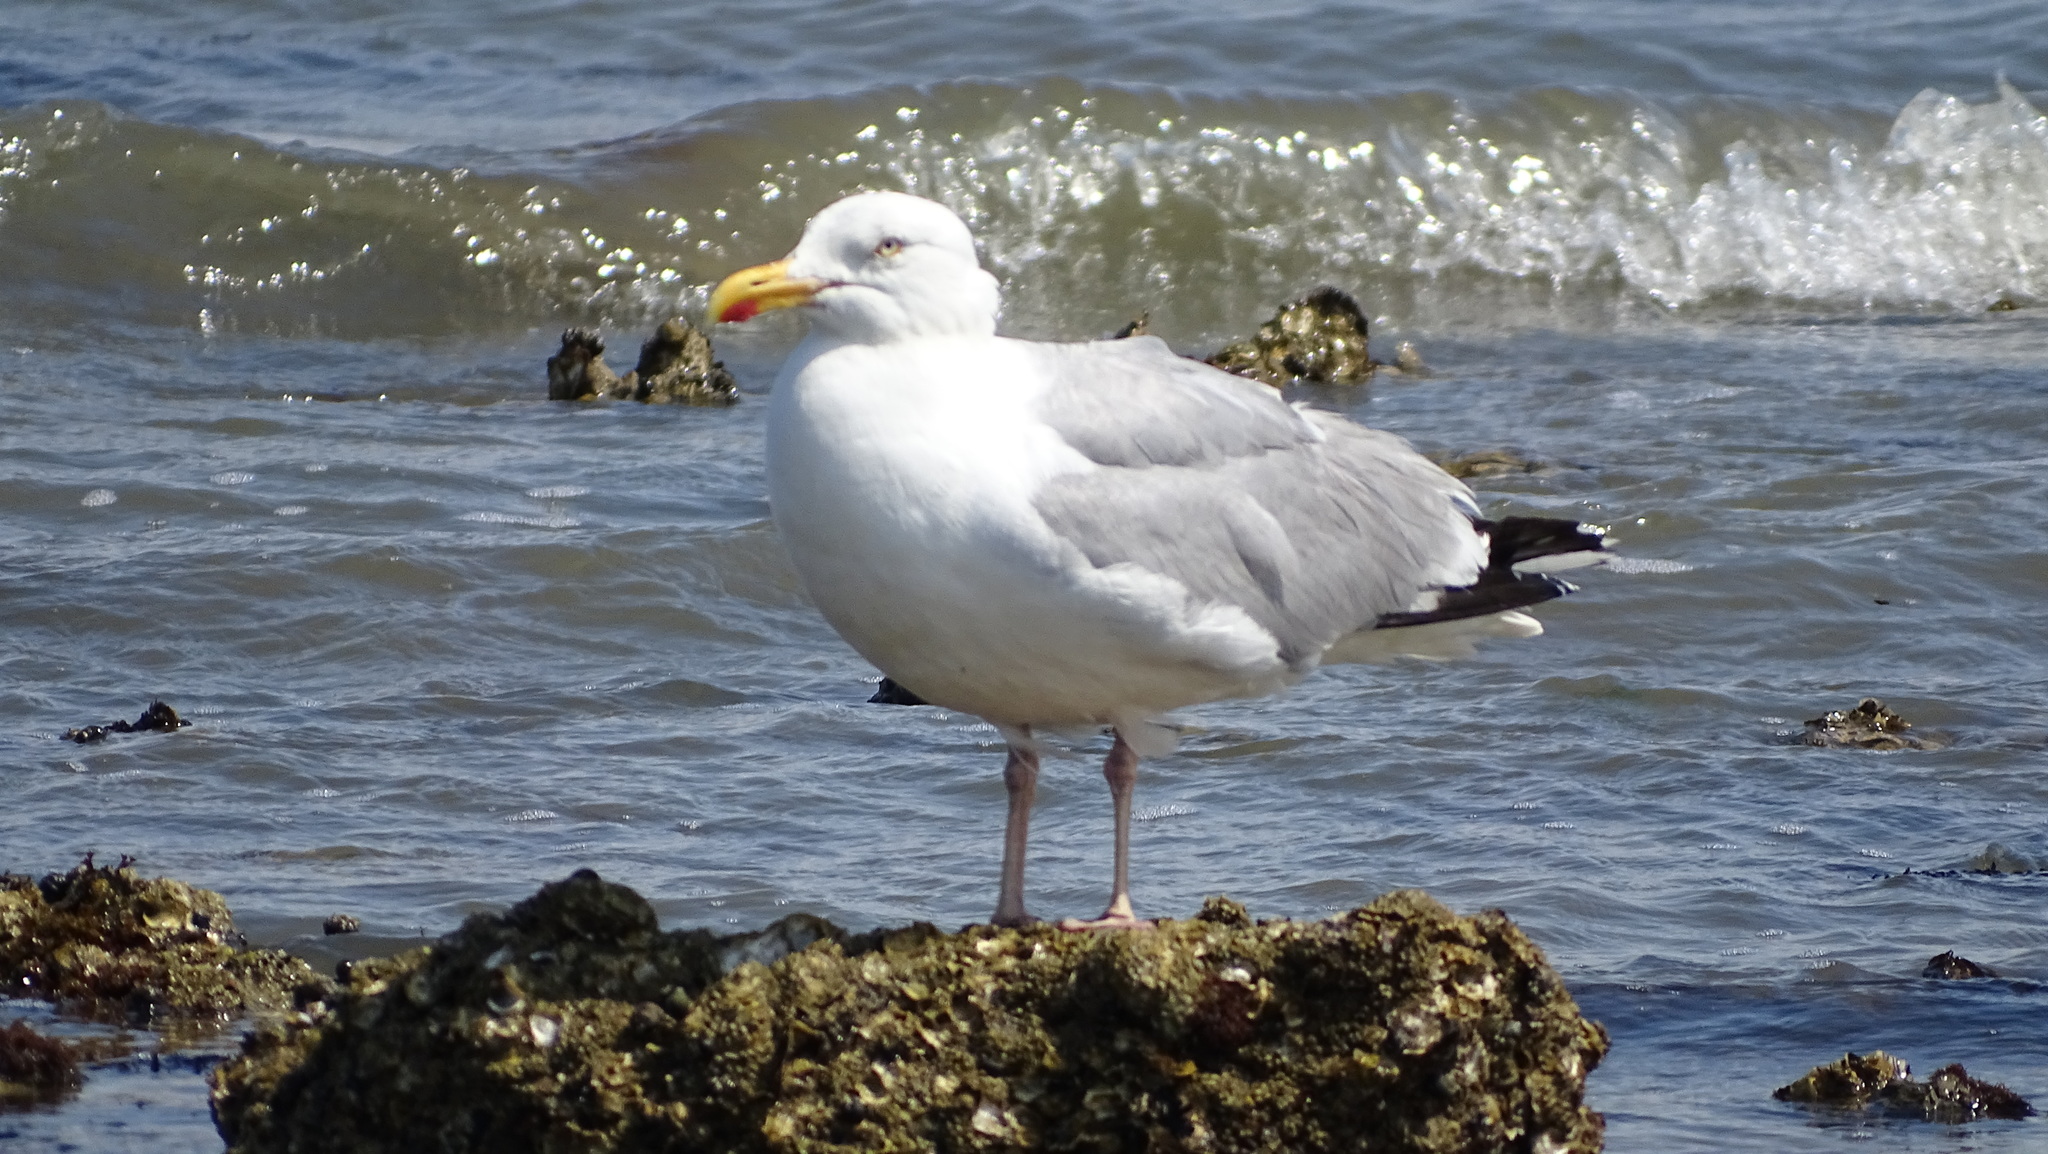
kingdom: Animalia
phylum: Chordata
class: Aves
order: Charadriiformes
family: Laridae
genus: Larus
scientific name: Larus argentatus
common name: Herring gull
